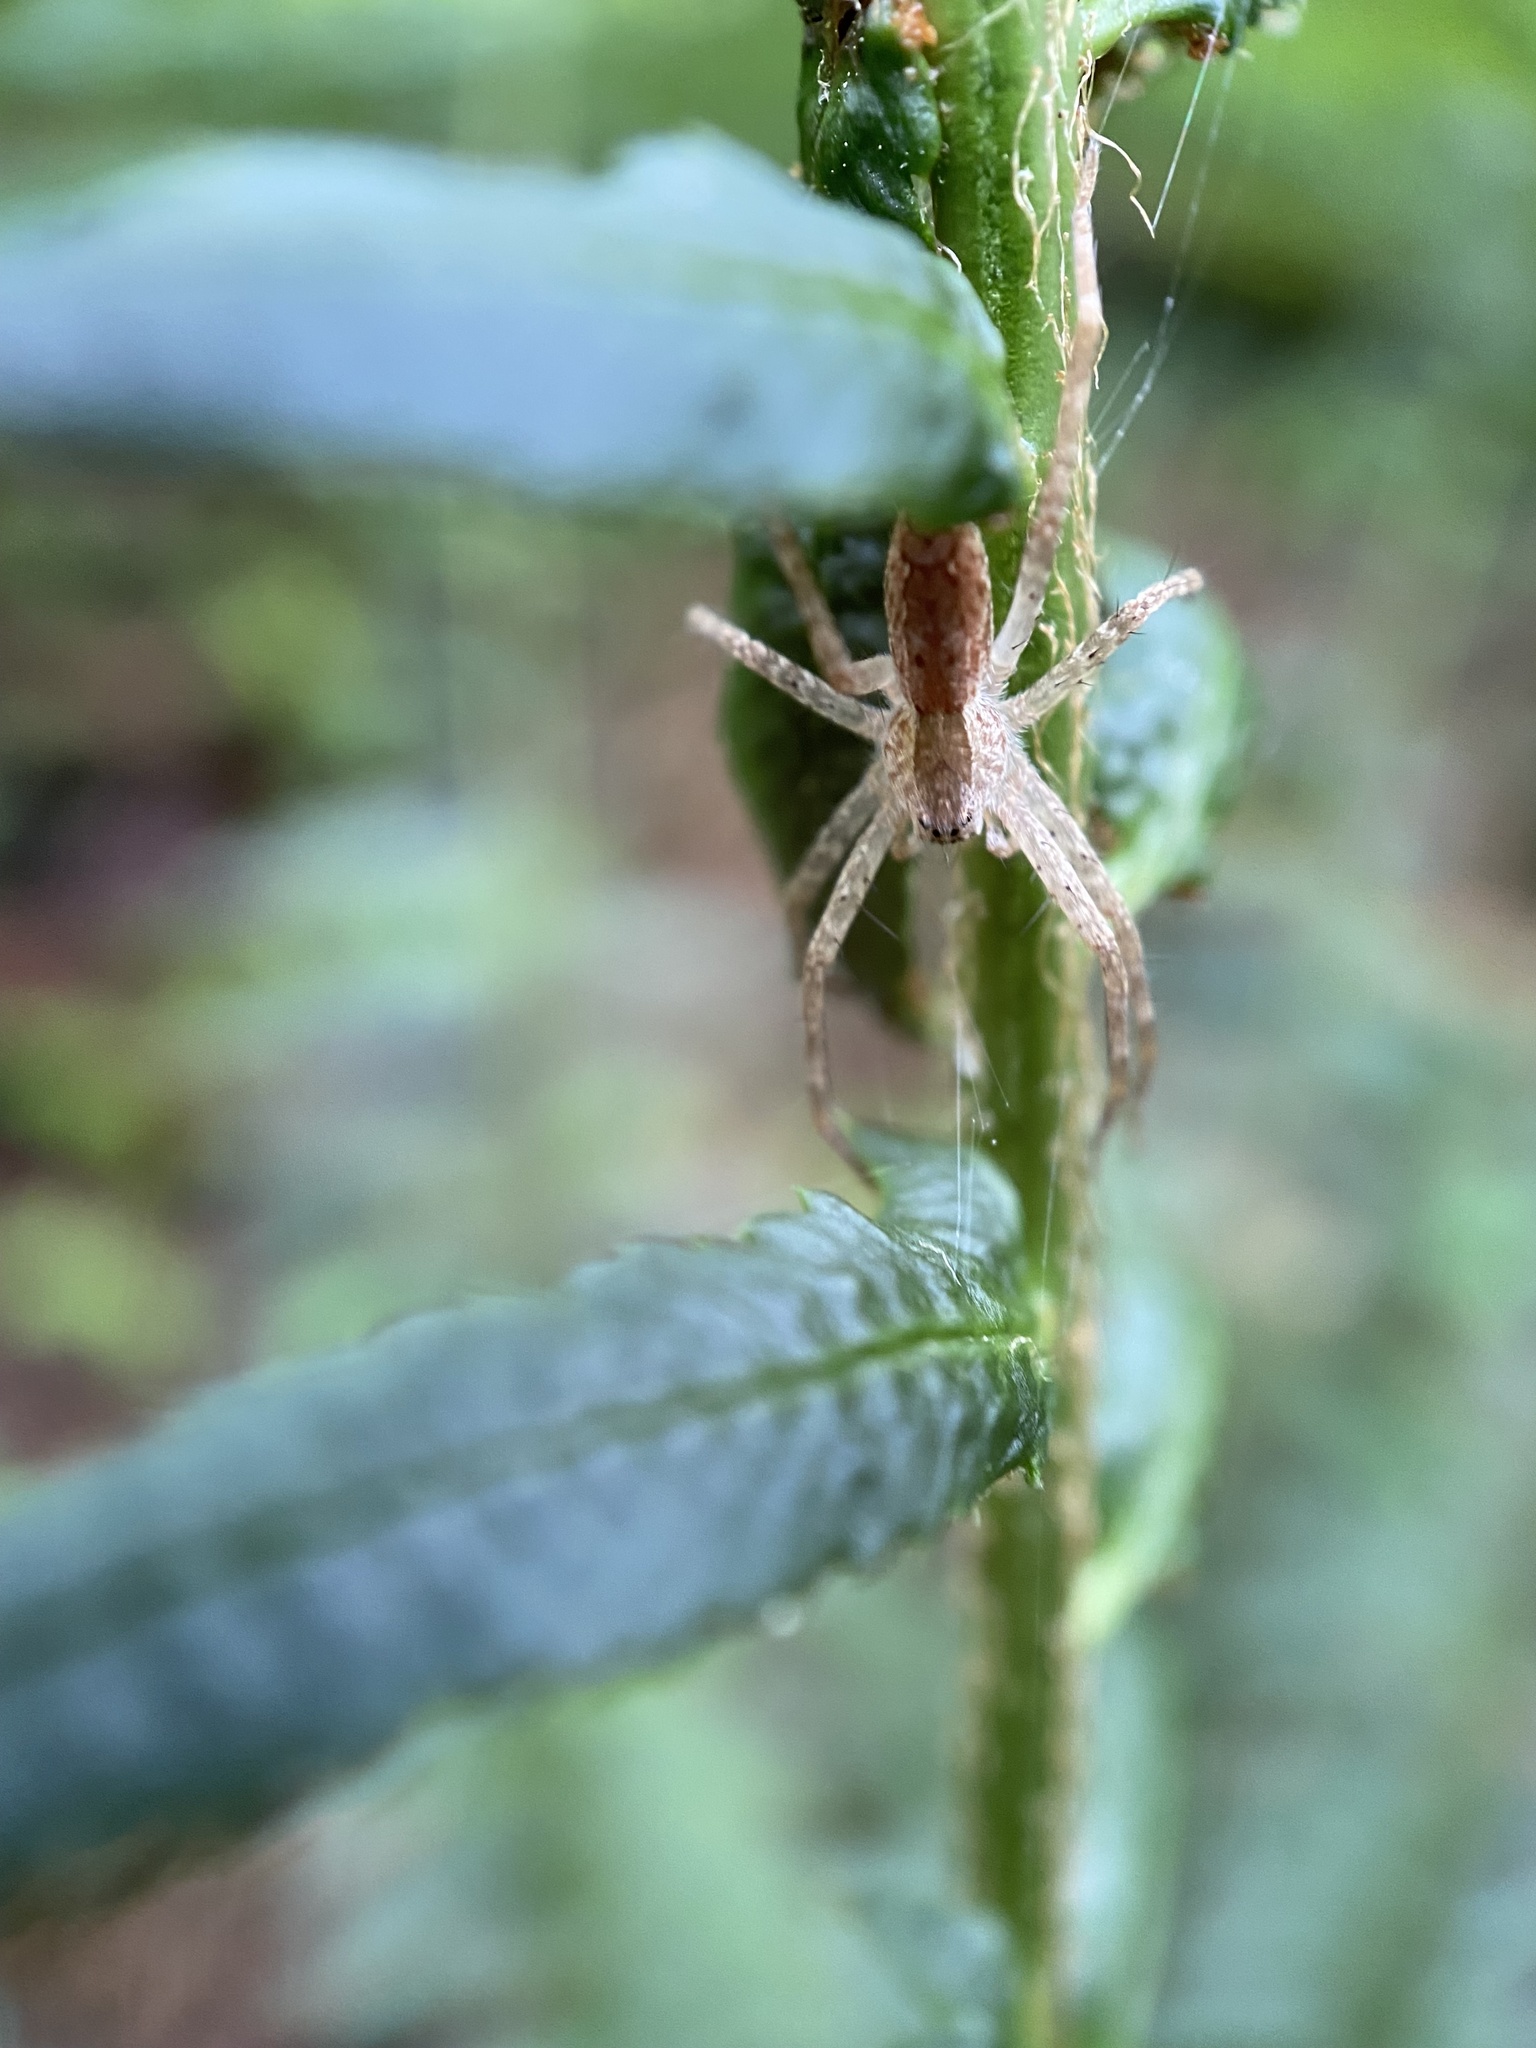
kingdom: Animalia
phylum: Arthropoda
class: Arachnida
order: Araneae
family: Pisauridae
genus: Pisaurina
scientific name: Pisaurina mira
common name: American nursery web spider
